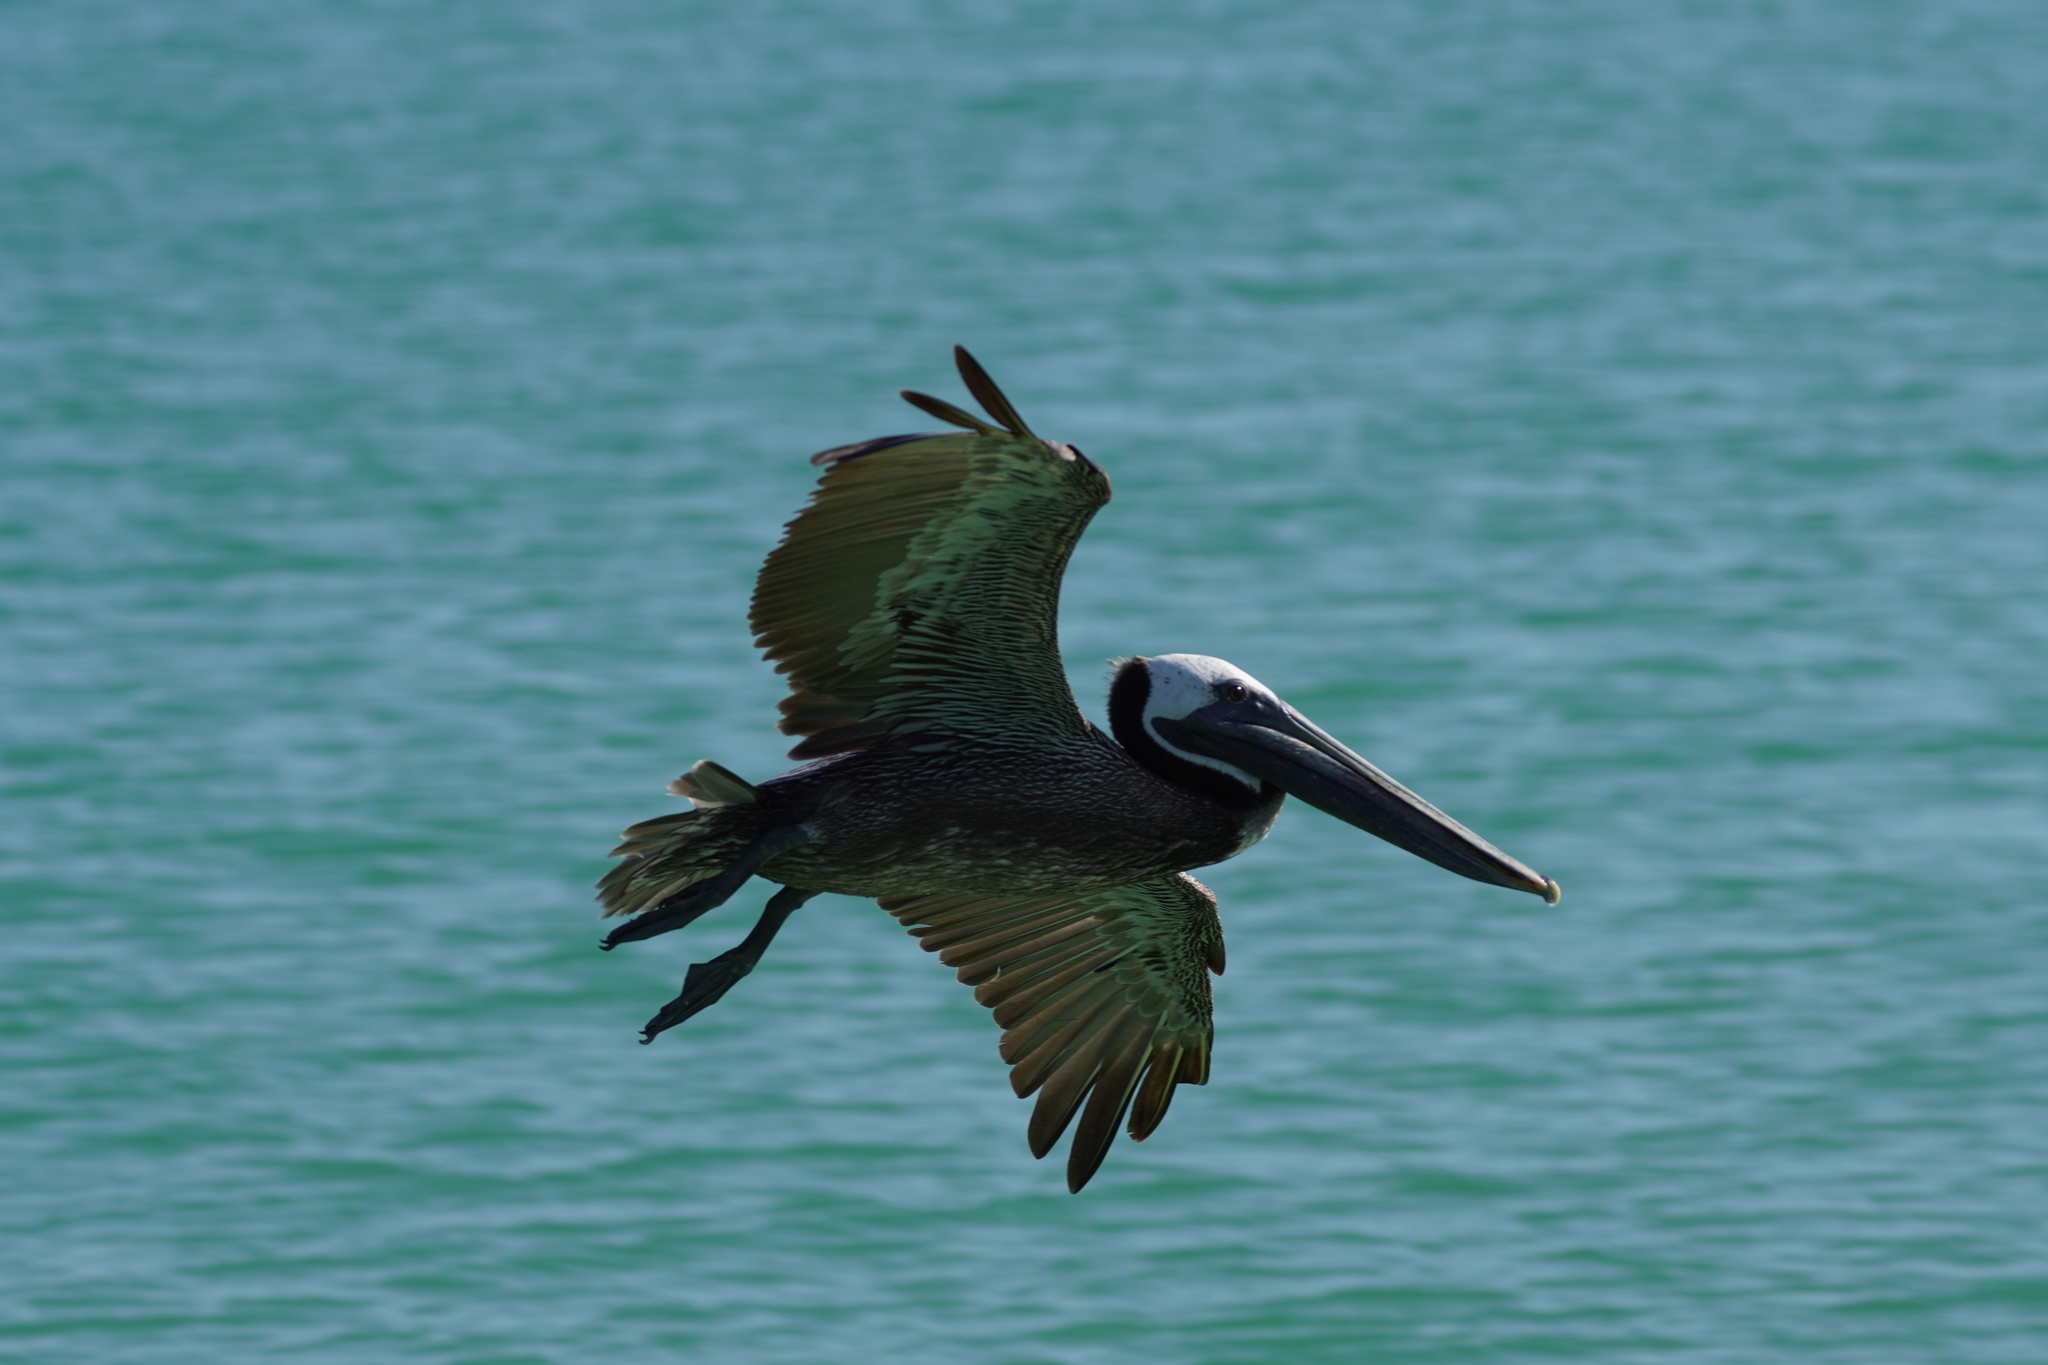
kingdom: Animalia
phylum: Chordata
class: Aves
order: Pelecaniformes
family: Pelecanidae
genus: Pelecanus
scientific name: Pelecanus occidentalis
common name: Brown pelican
